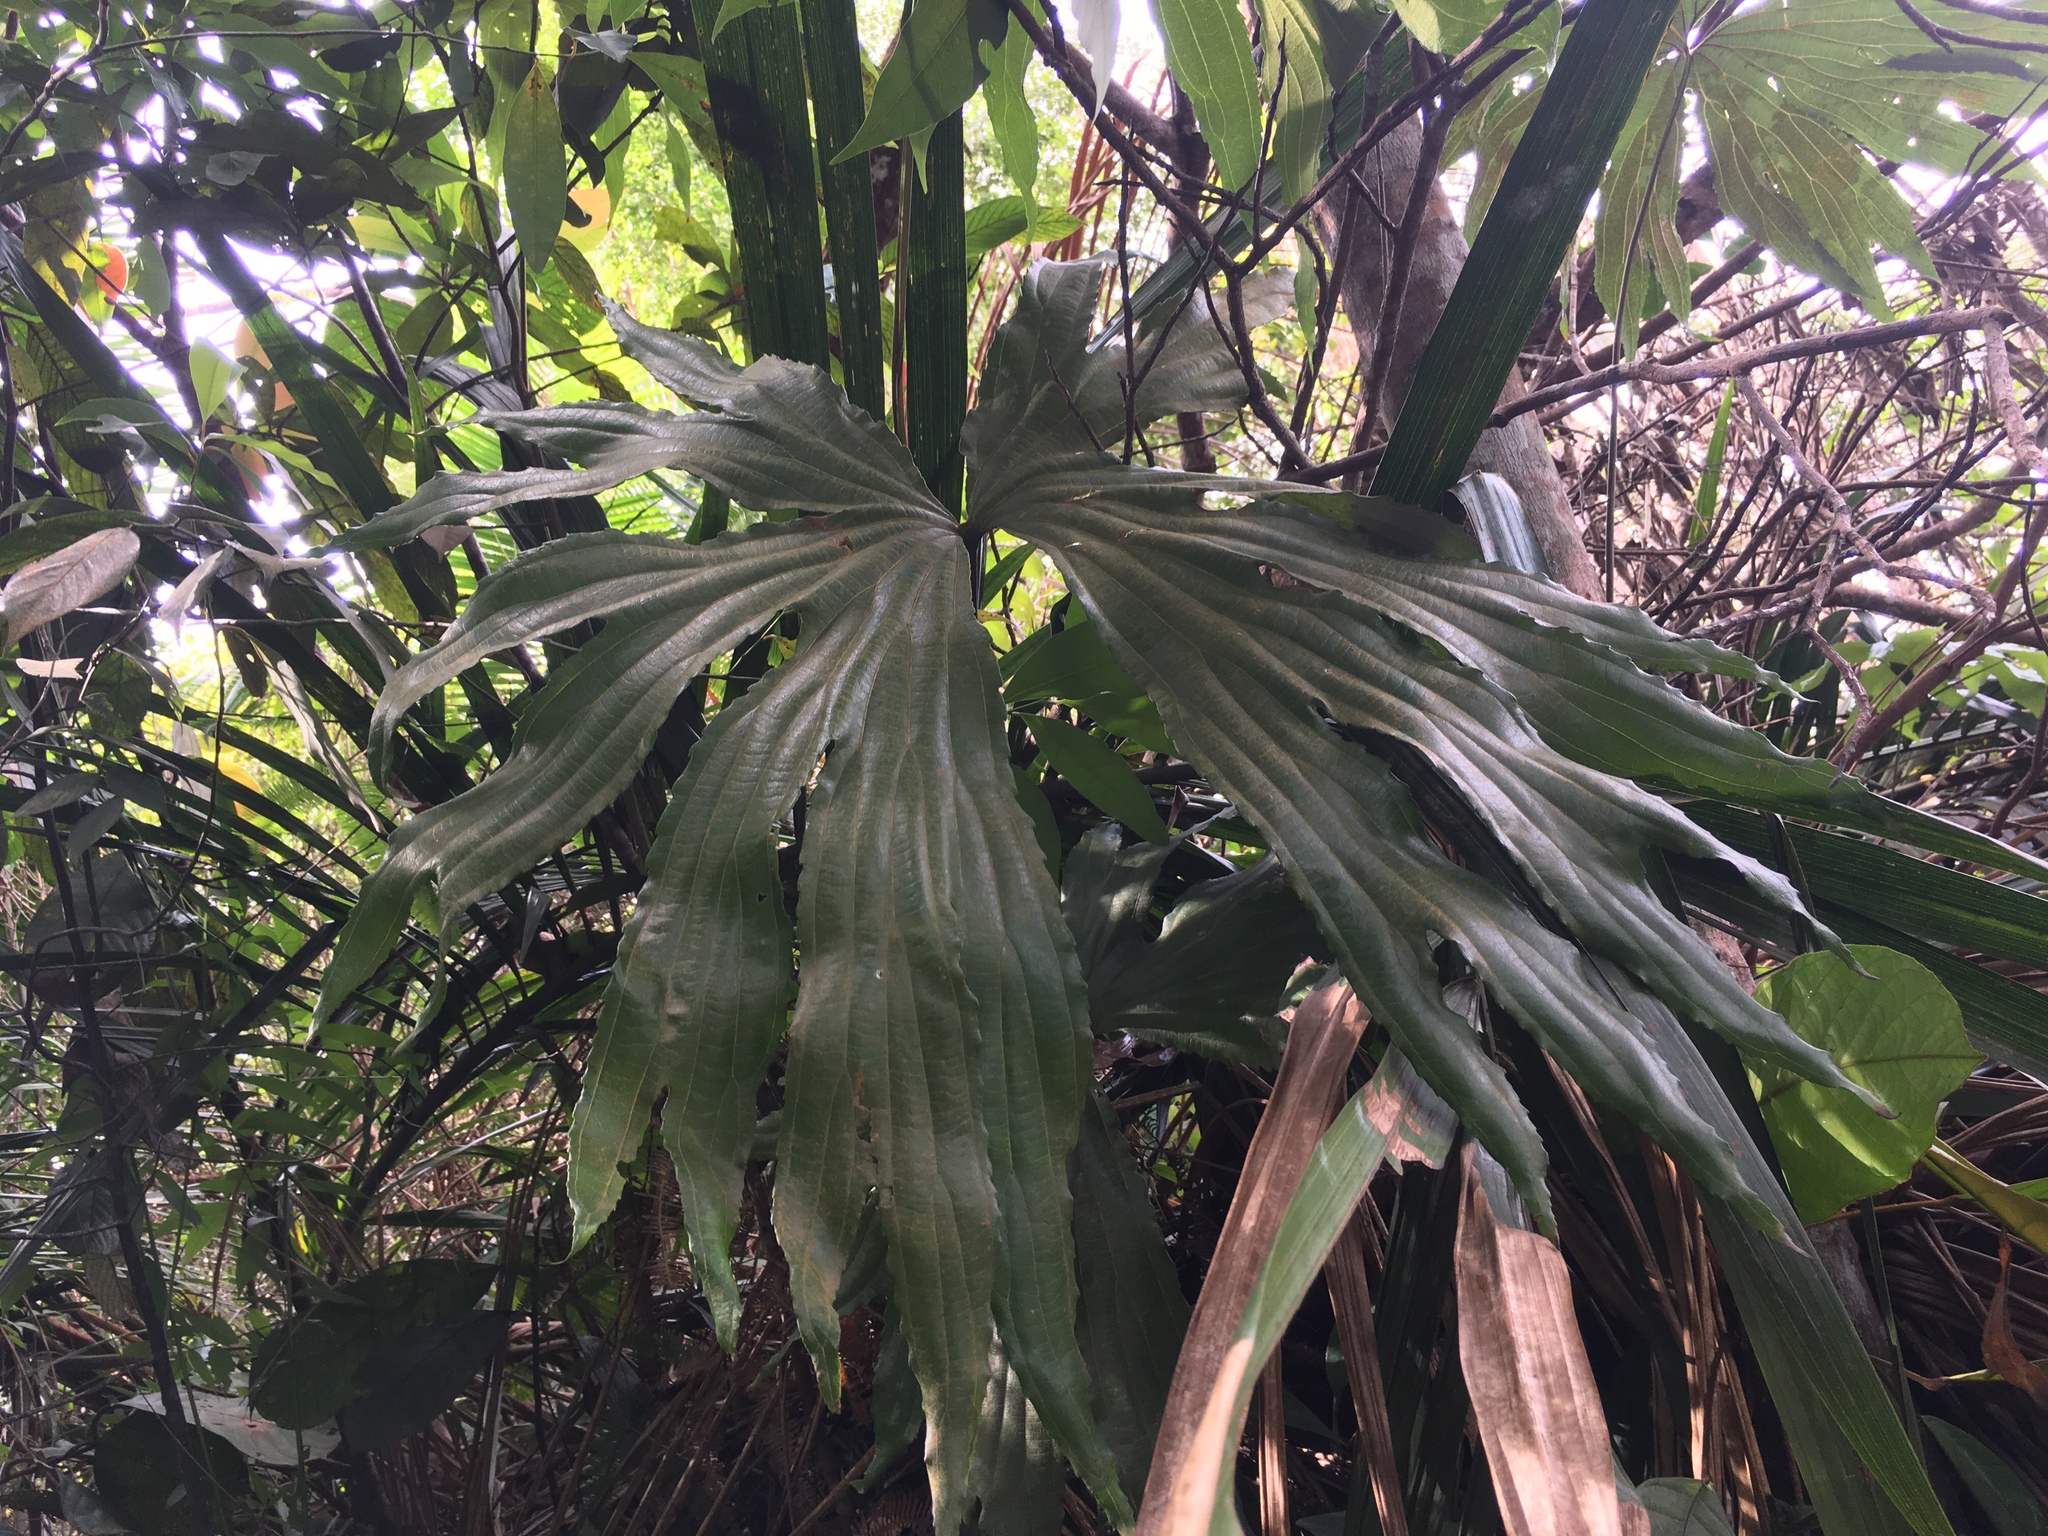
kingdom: Plantae
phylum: Tracheophyta
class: Polypodiopsida
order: Gleicheniales
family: Dipteridaceae
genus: Dipteris
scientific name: Dipteris conjugata
